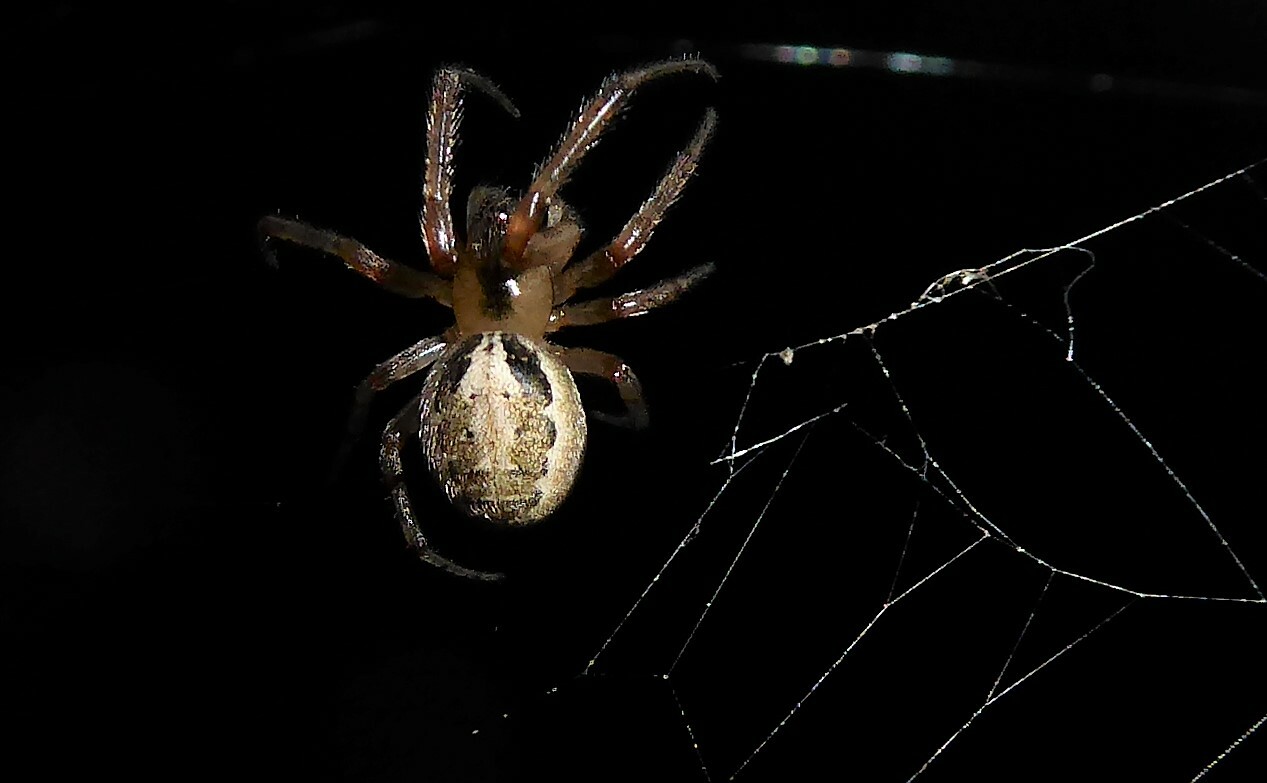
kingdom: Animalia
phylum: Arthropoda
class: Arachnida
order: Araneae
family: Araneidae
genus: Zygiella
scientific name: Zygiella x-notata
